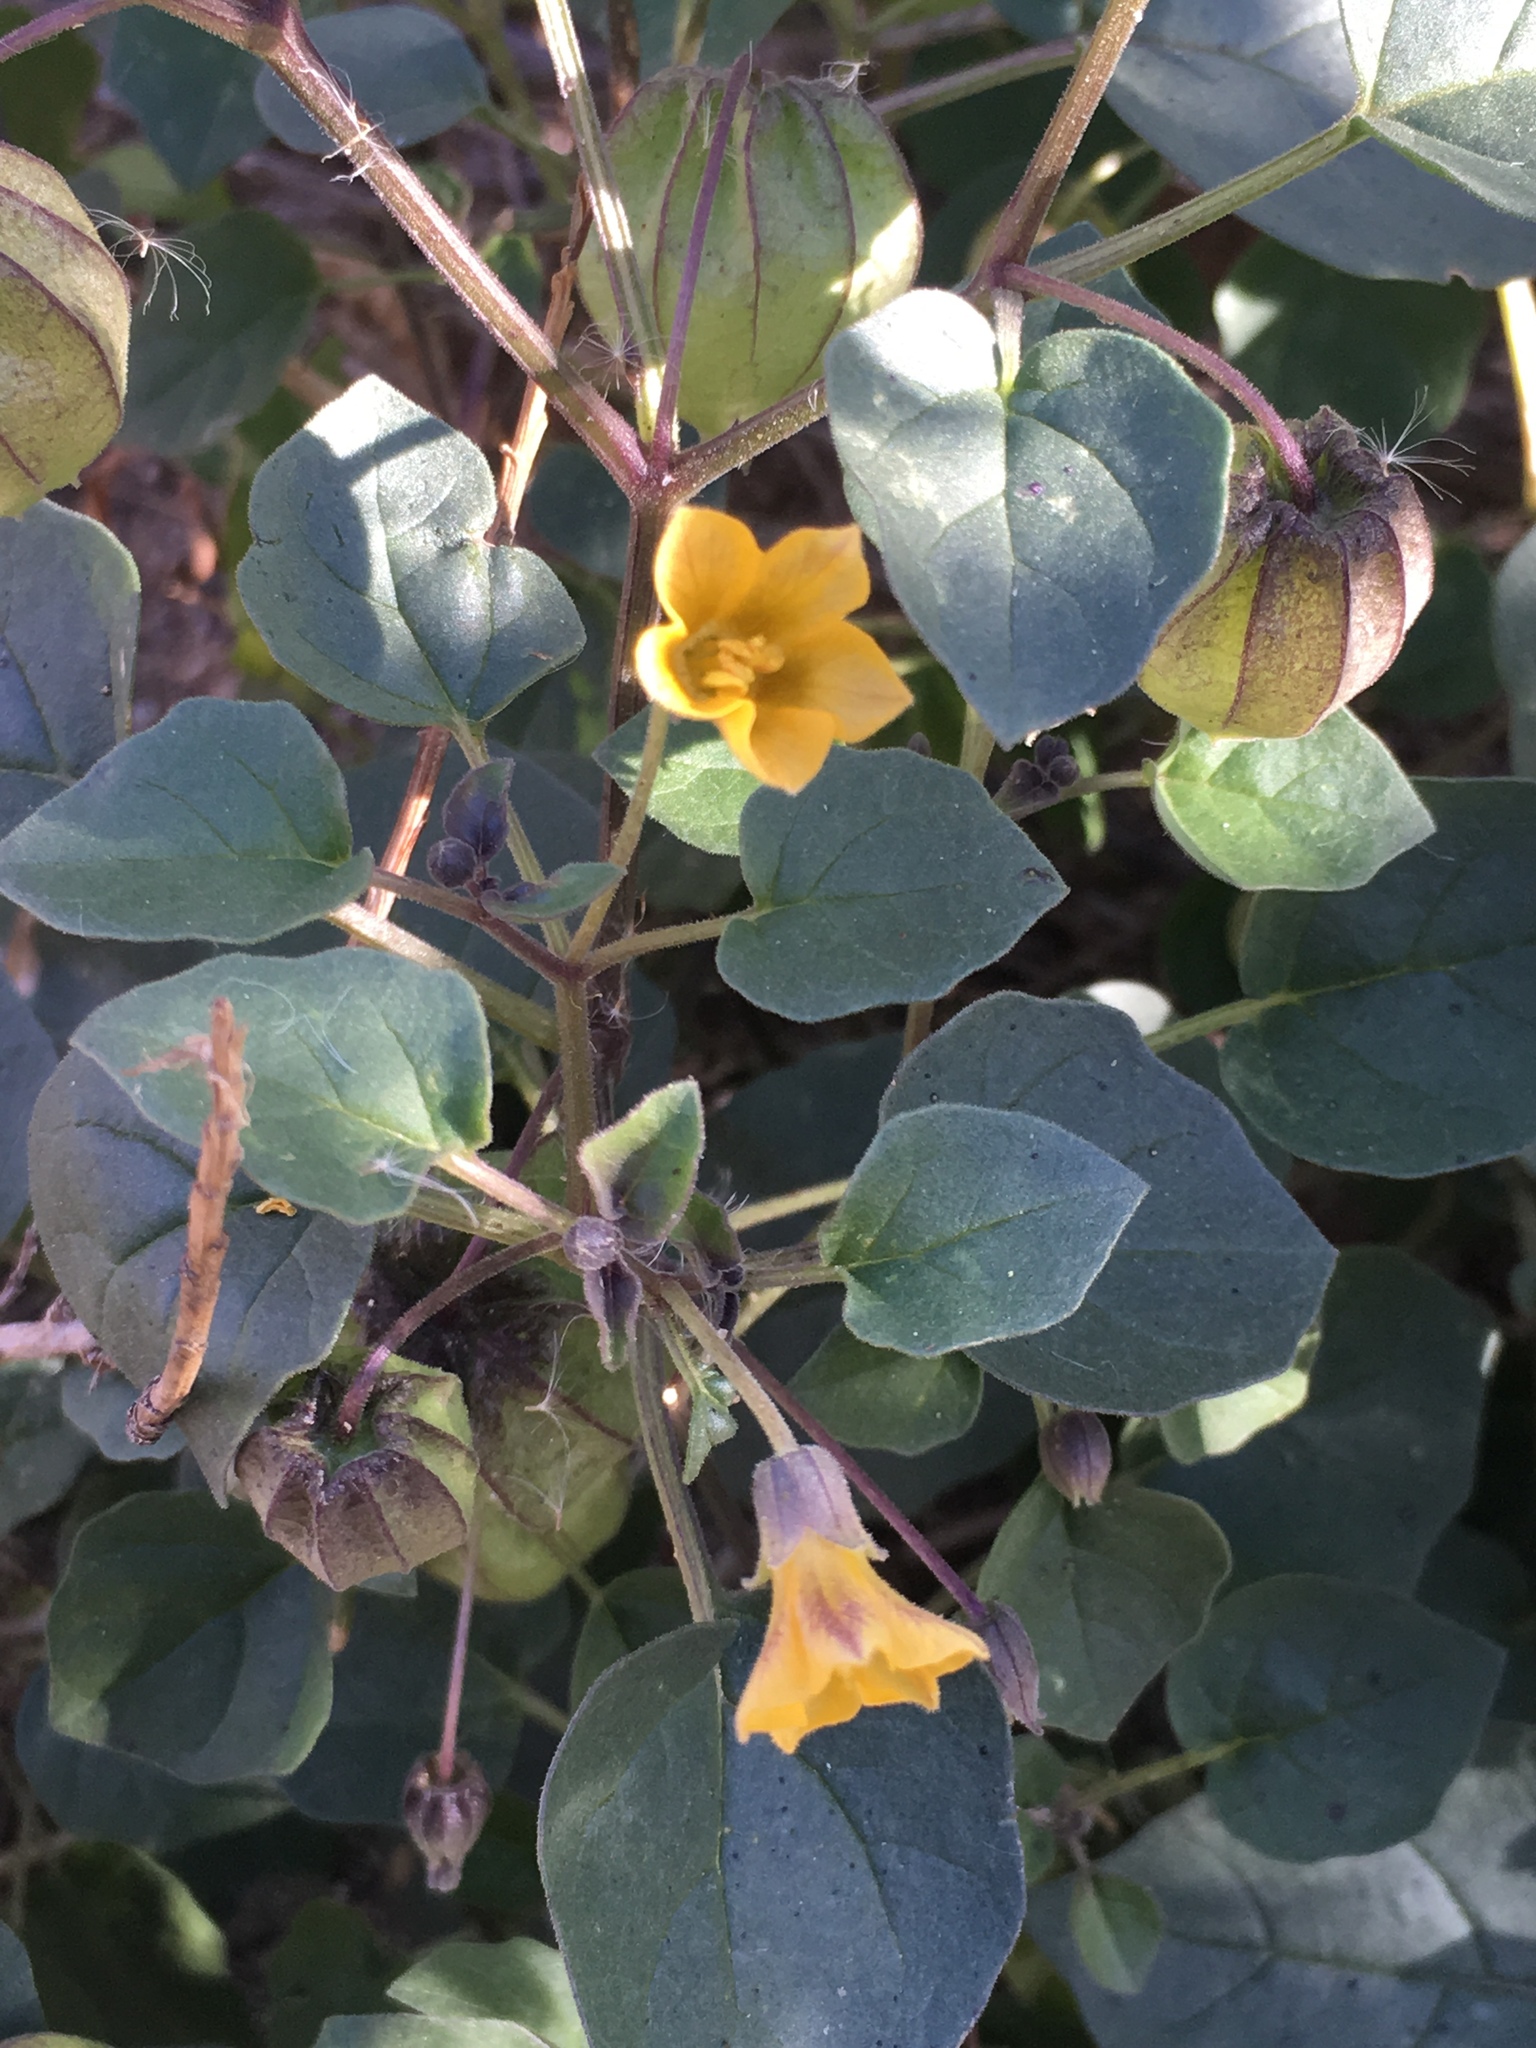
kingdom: Plantae
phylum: Tracheophyta
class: Magnoliopsida
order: Solanales
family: Solanaceae
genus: Physalis
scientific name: Physalis crassifolia
